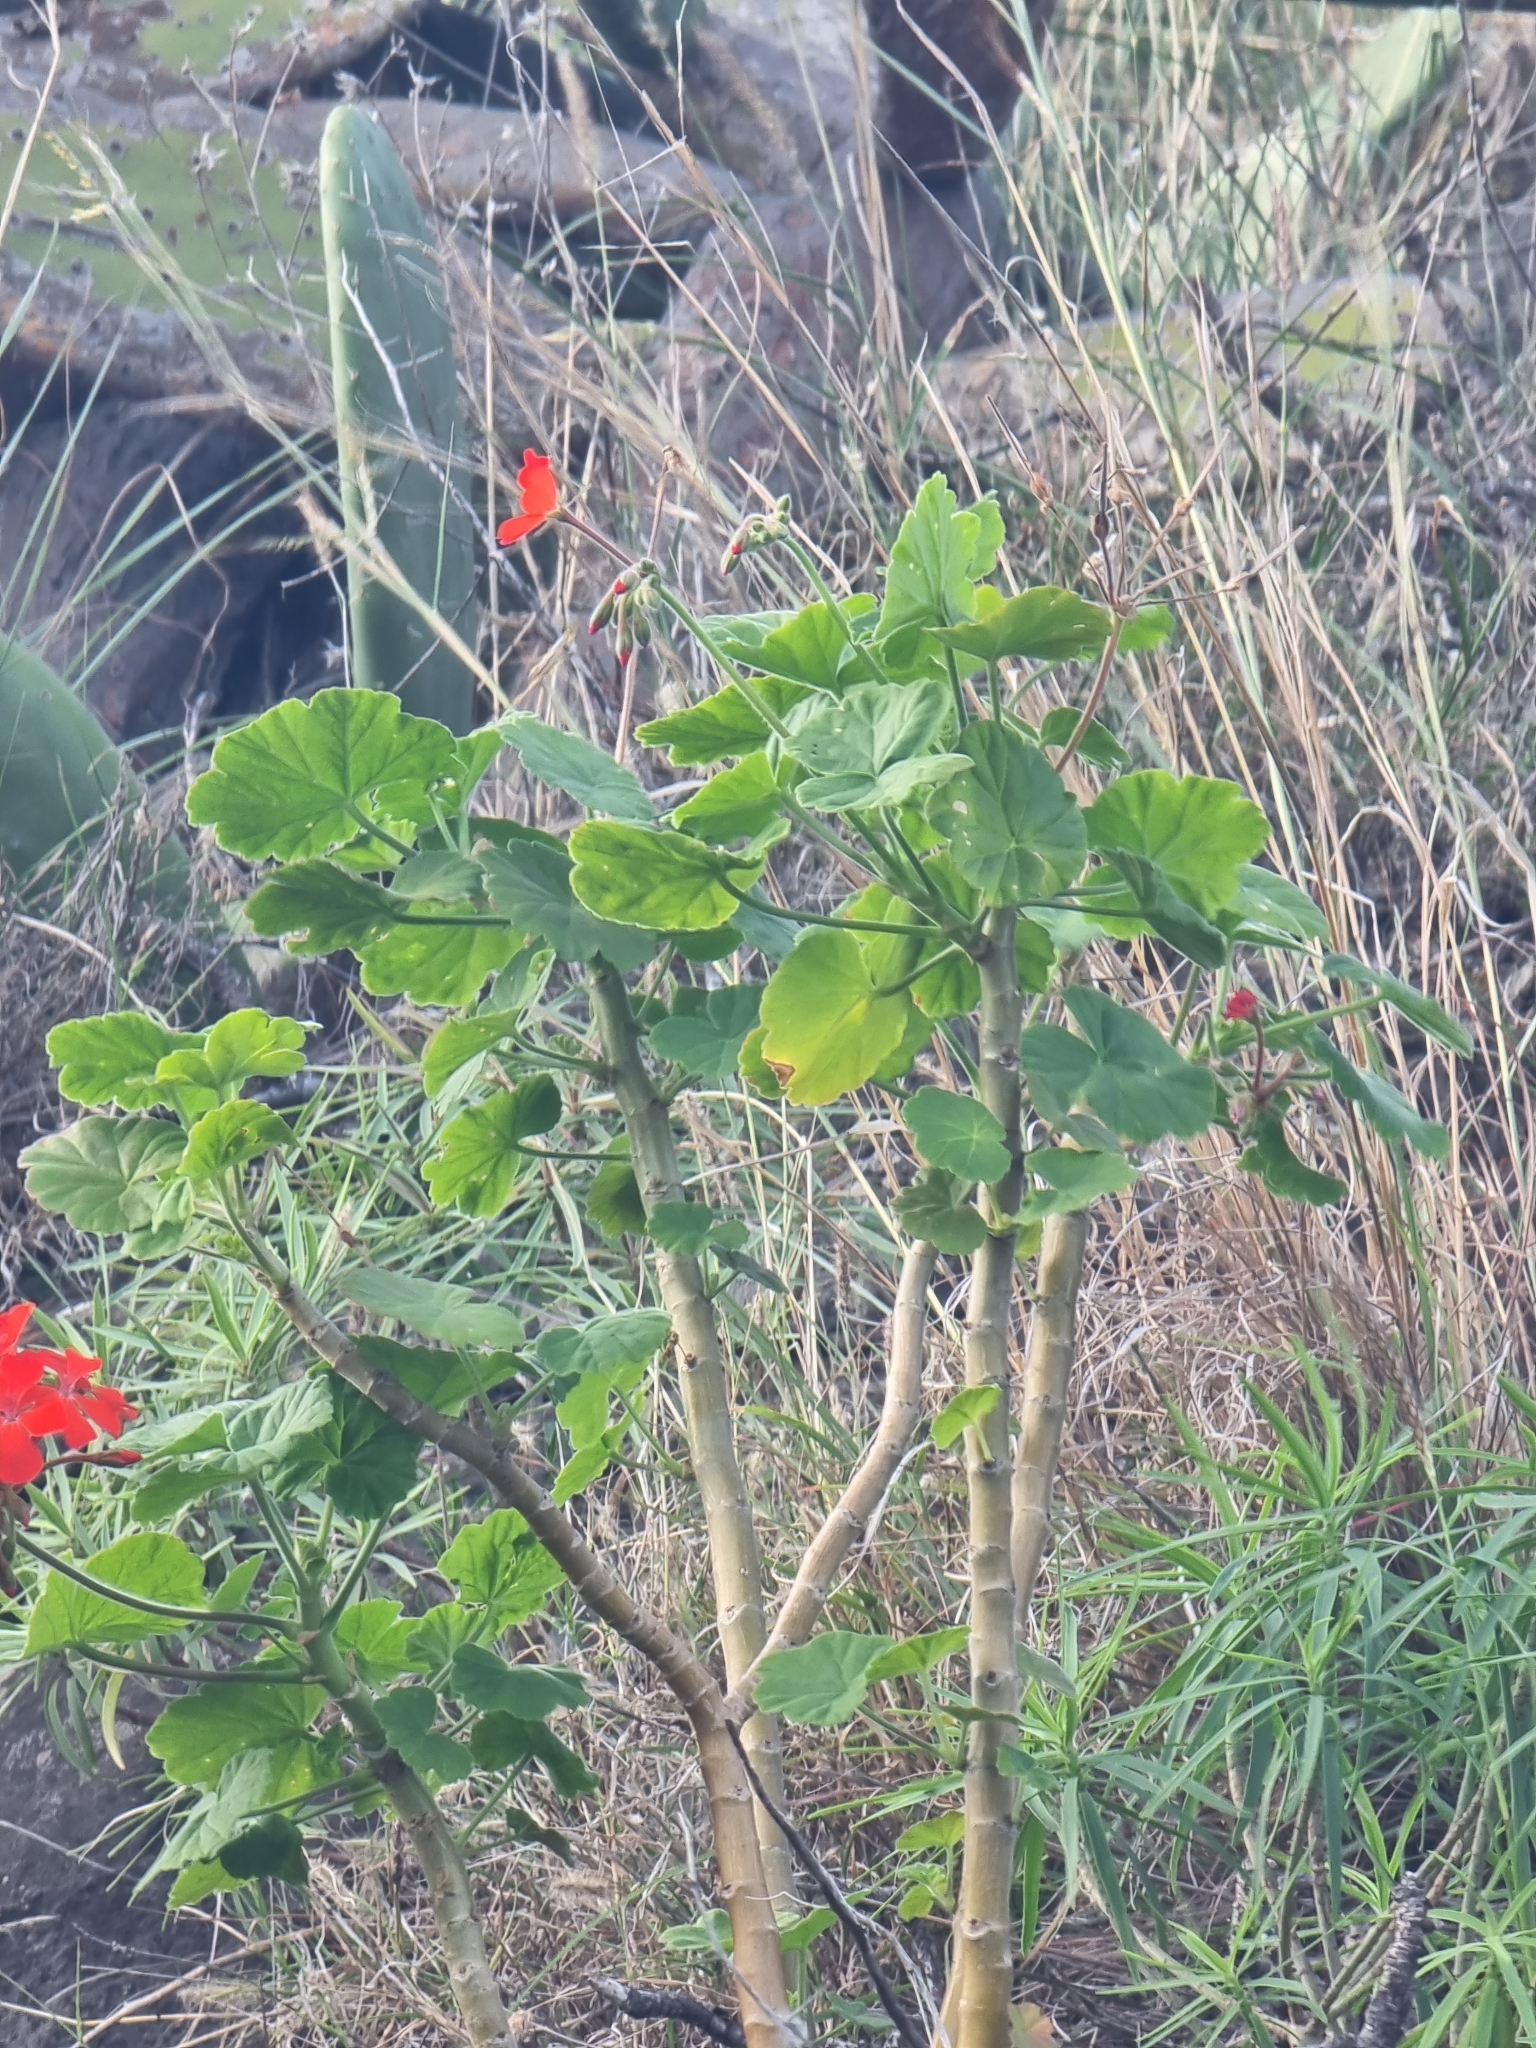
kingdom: Plantae
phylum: Tracheophyta
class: Magnoliopsida
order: Geraniales
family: Geraniaceae
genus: Pelargonium
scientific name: Pelargonium hybridum
